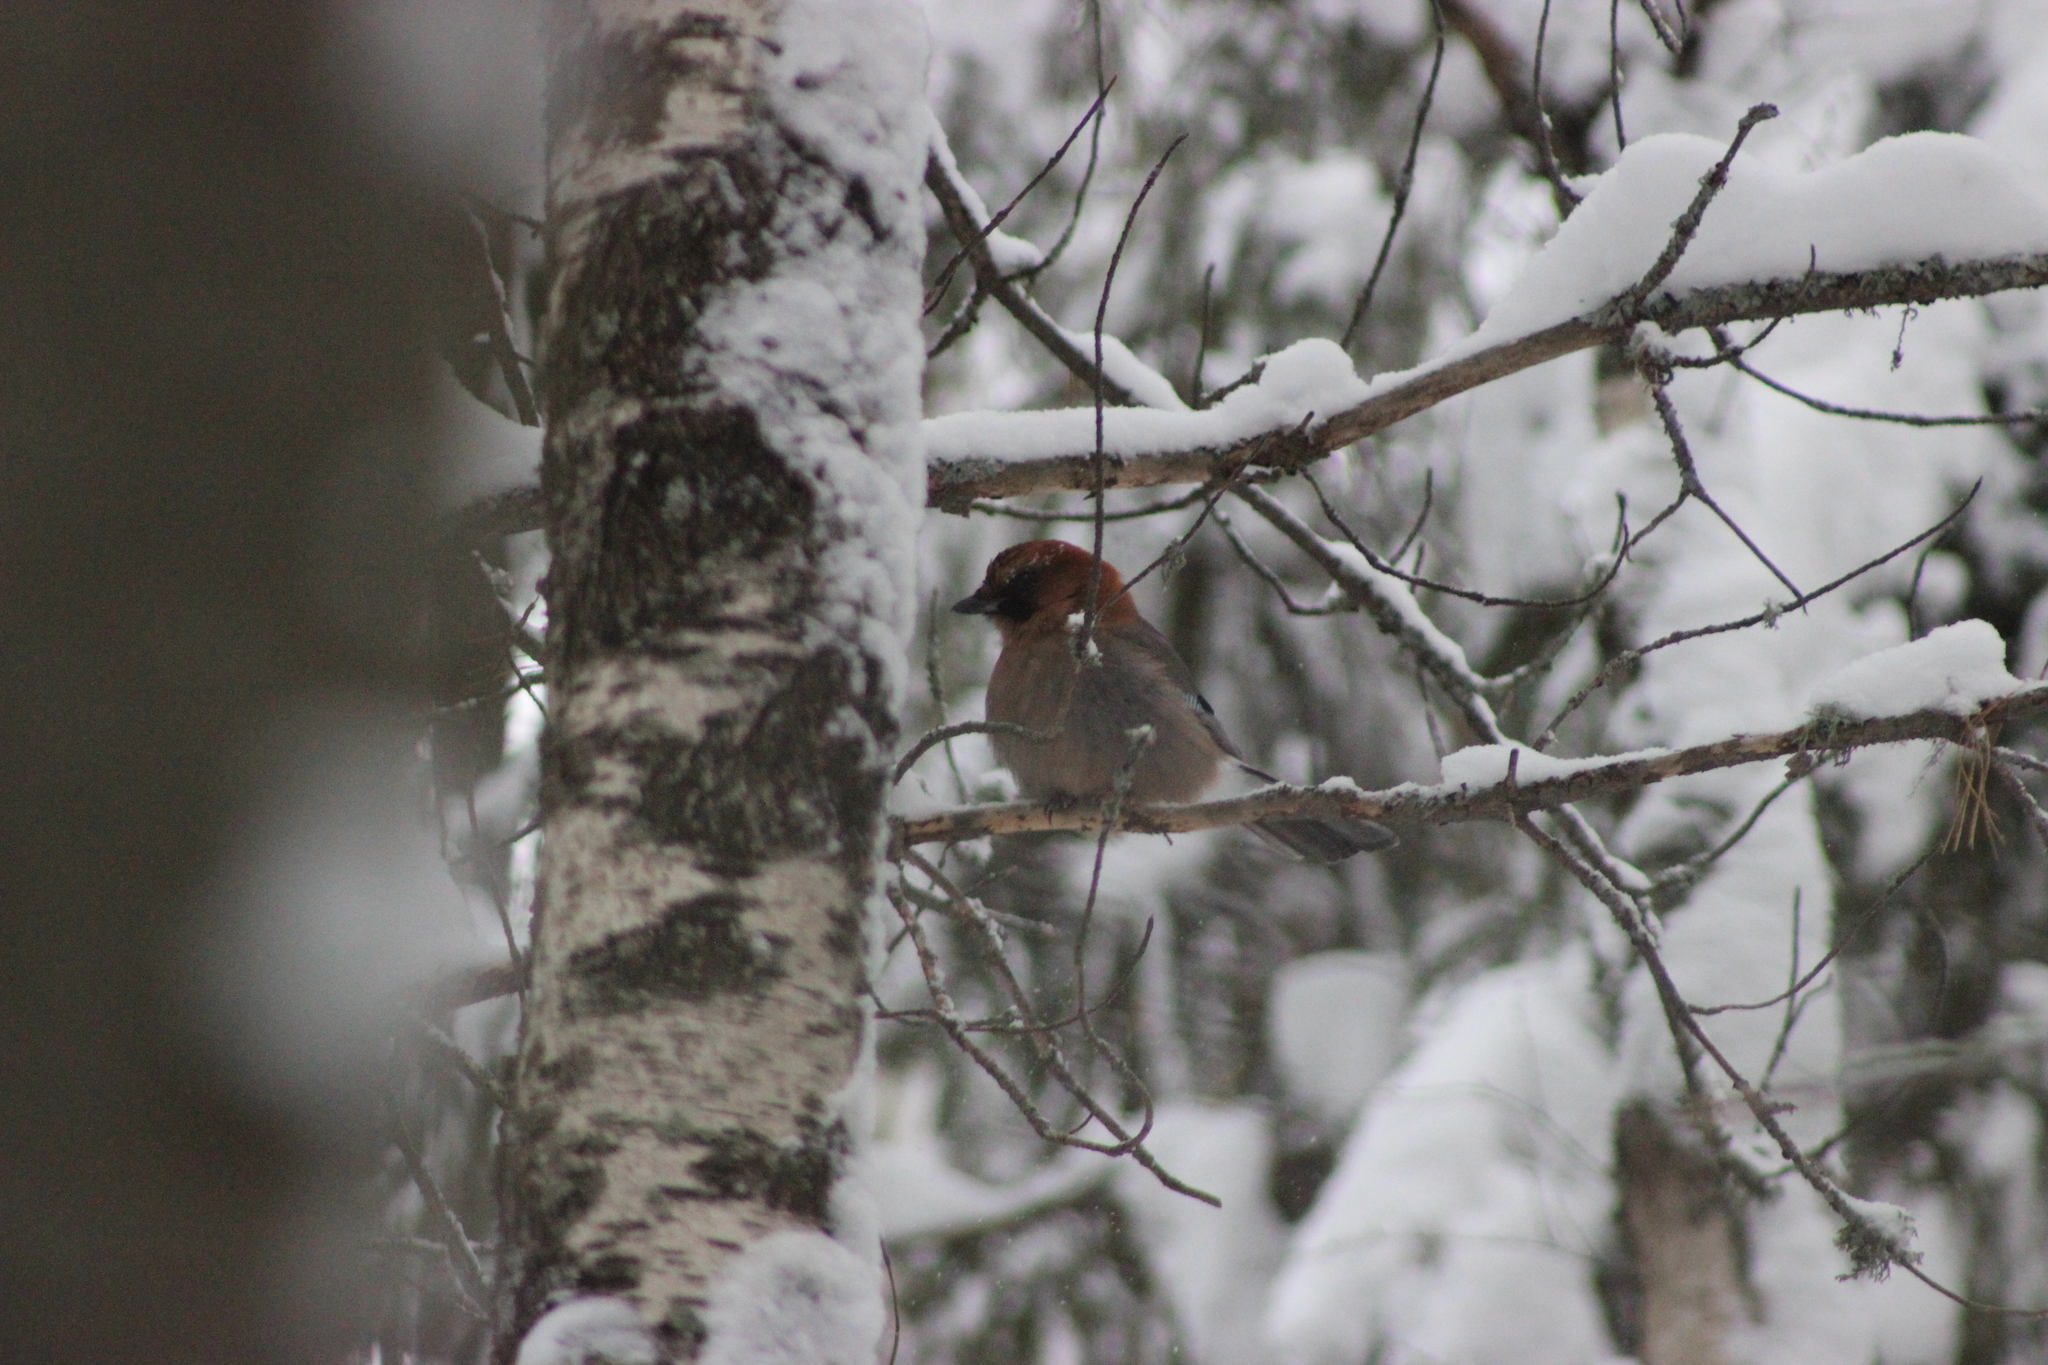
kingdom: Animalia
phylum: Chordata
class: Aves
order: Passeriformes
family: Corvidae
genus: Garrulus
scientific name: Garrulus glandarius
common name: Eurasian jay
